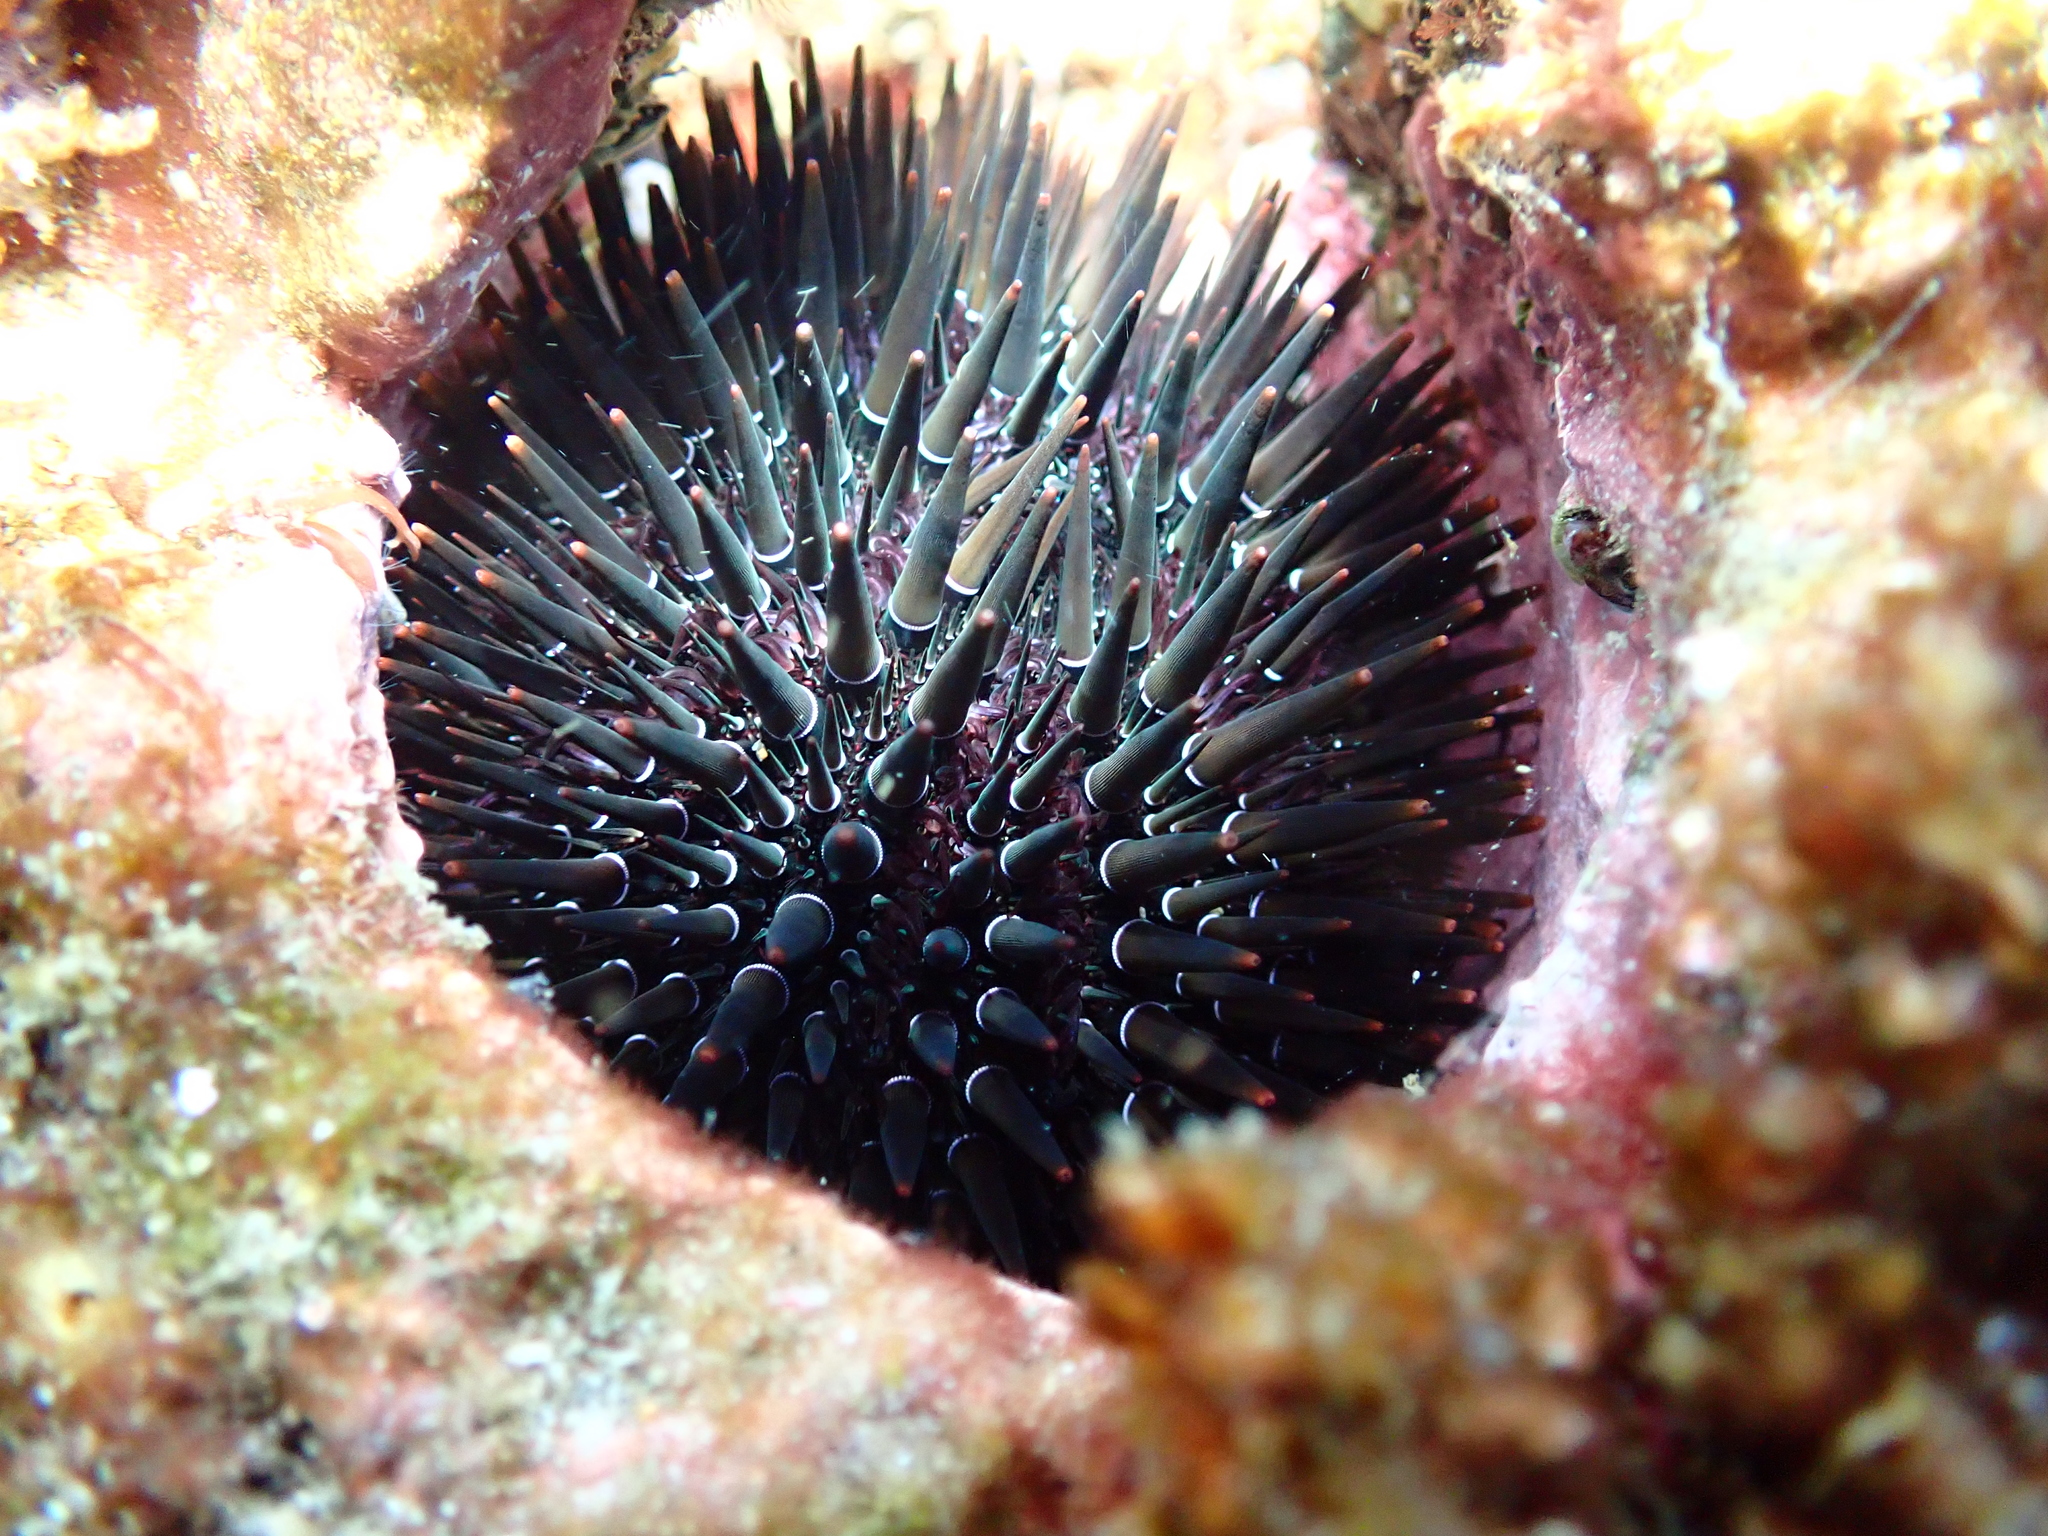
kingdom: Animalia
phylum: Echinodermata
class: Echinoidea
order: Camarodonta
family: Echinometridae
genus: Echinometra
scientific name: Echinometra mathaei
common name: Rock-boring urchin
